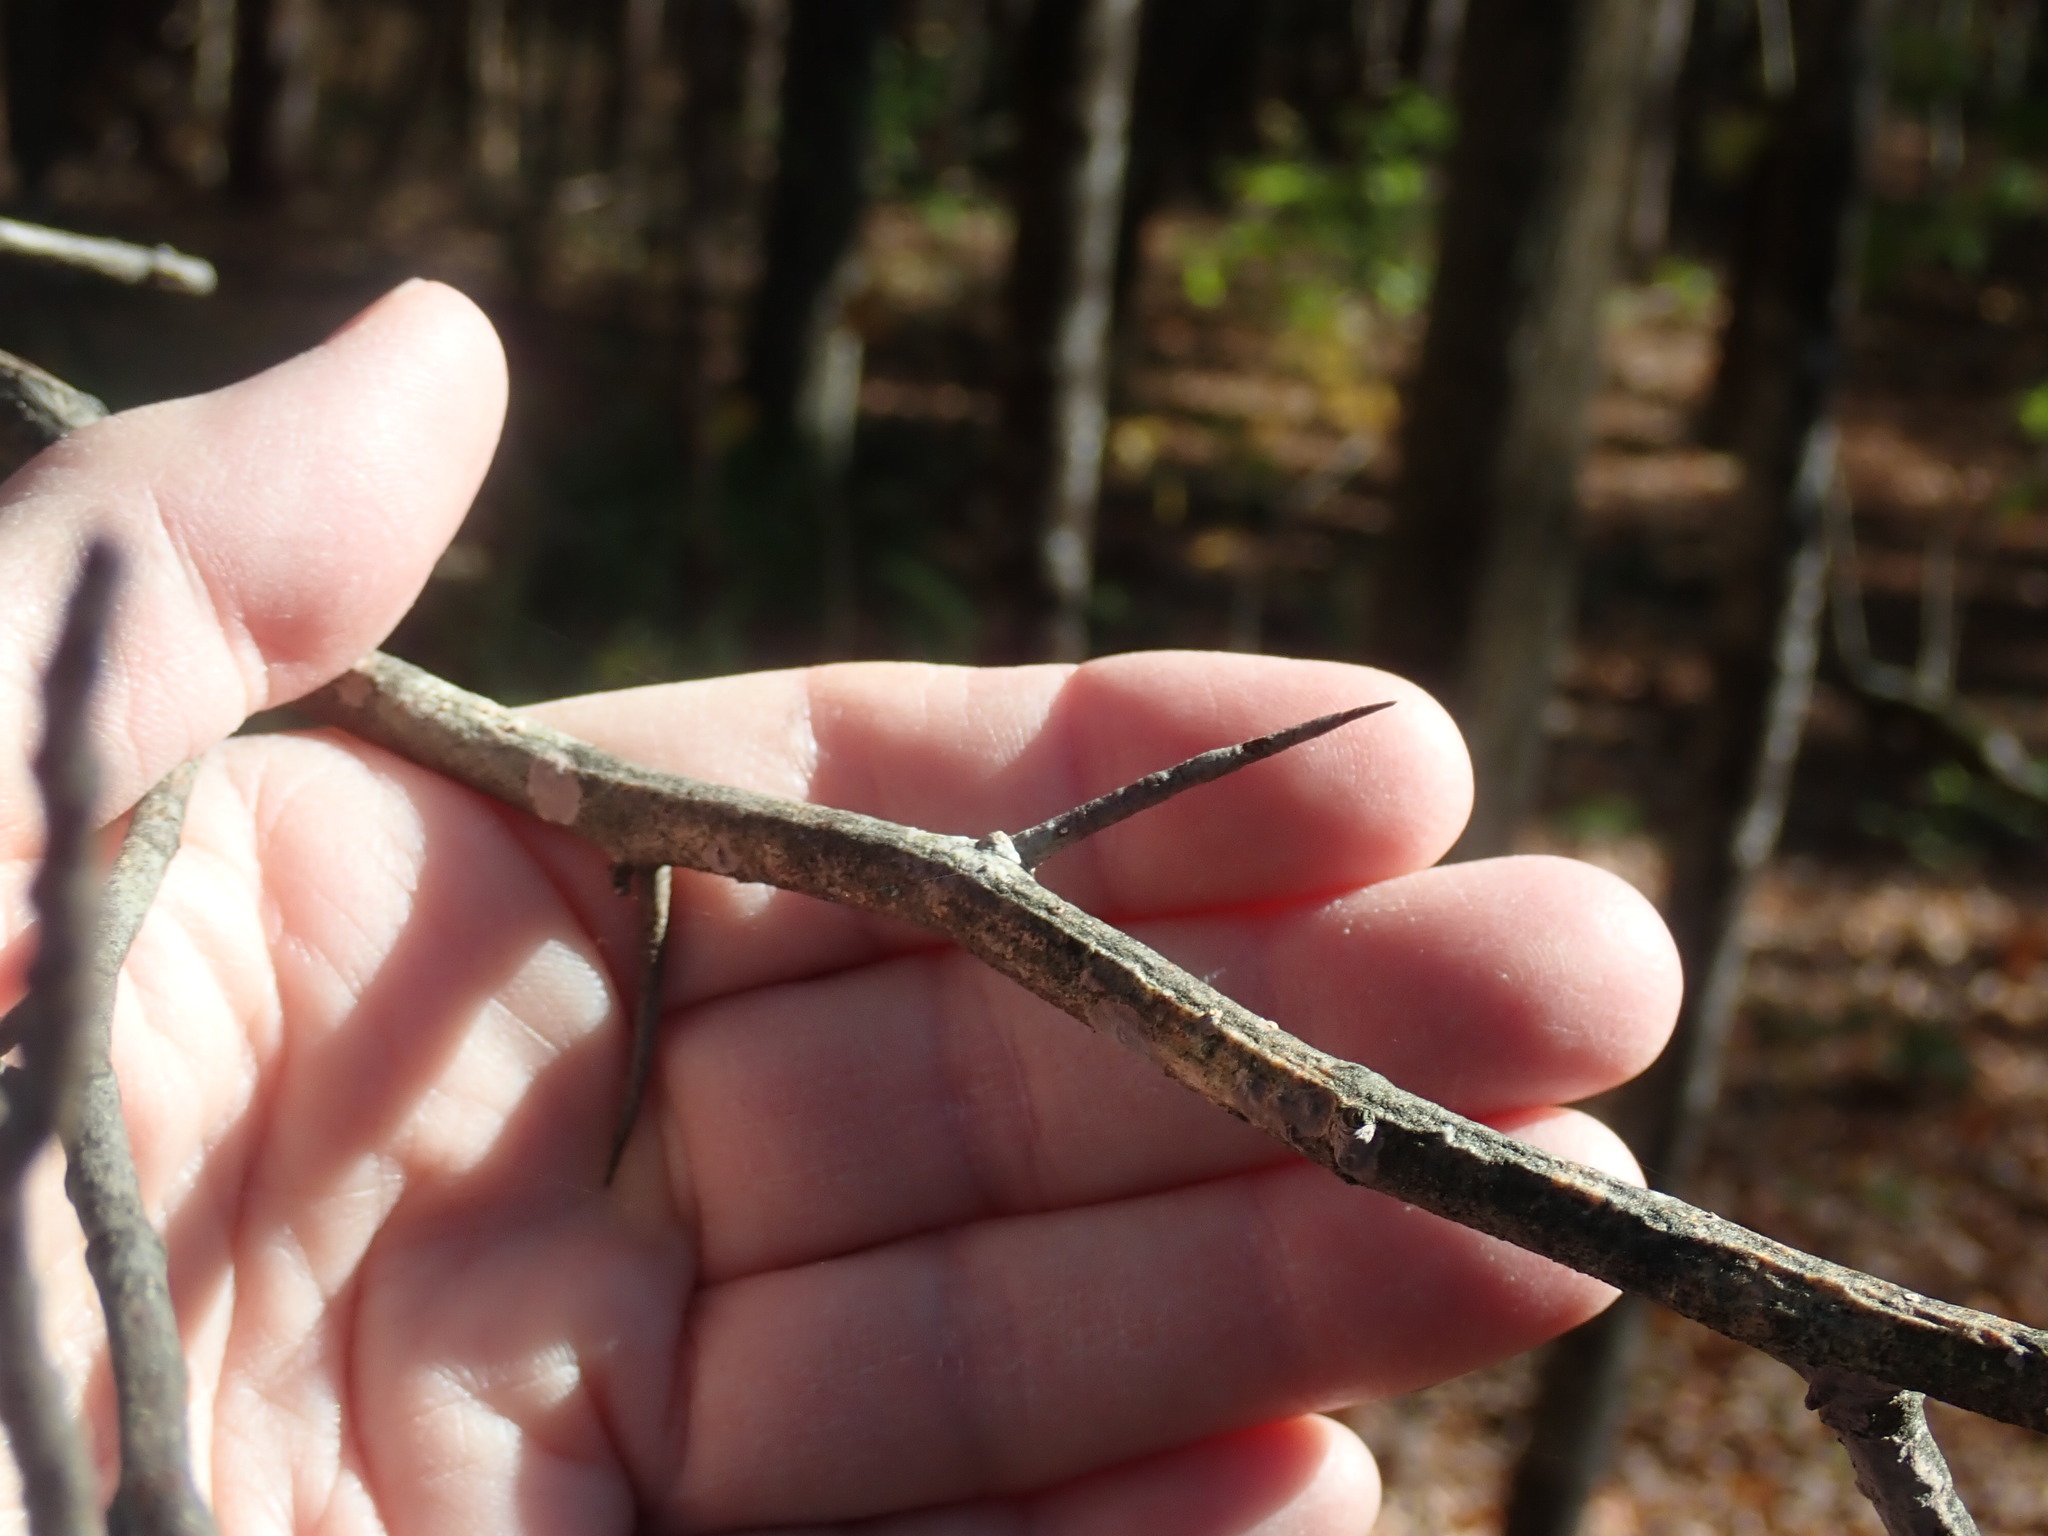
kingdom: Plantae
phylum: Tracheophyta
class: Magnoliopsida
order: Rosales
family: Rosaceae
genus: Crataegus
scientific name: Crataegus
